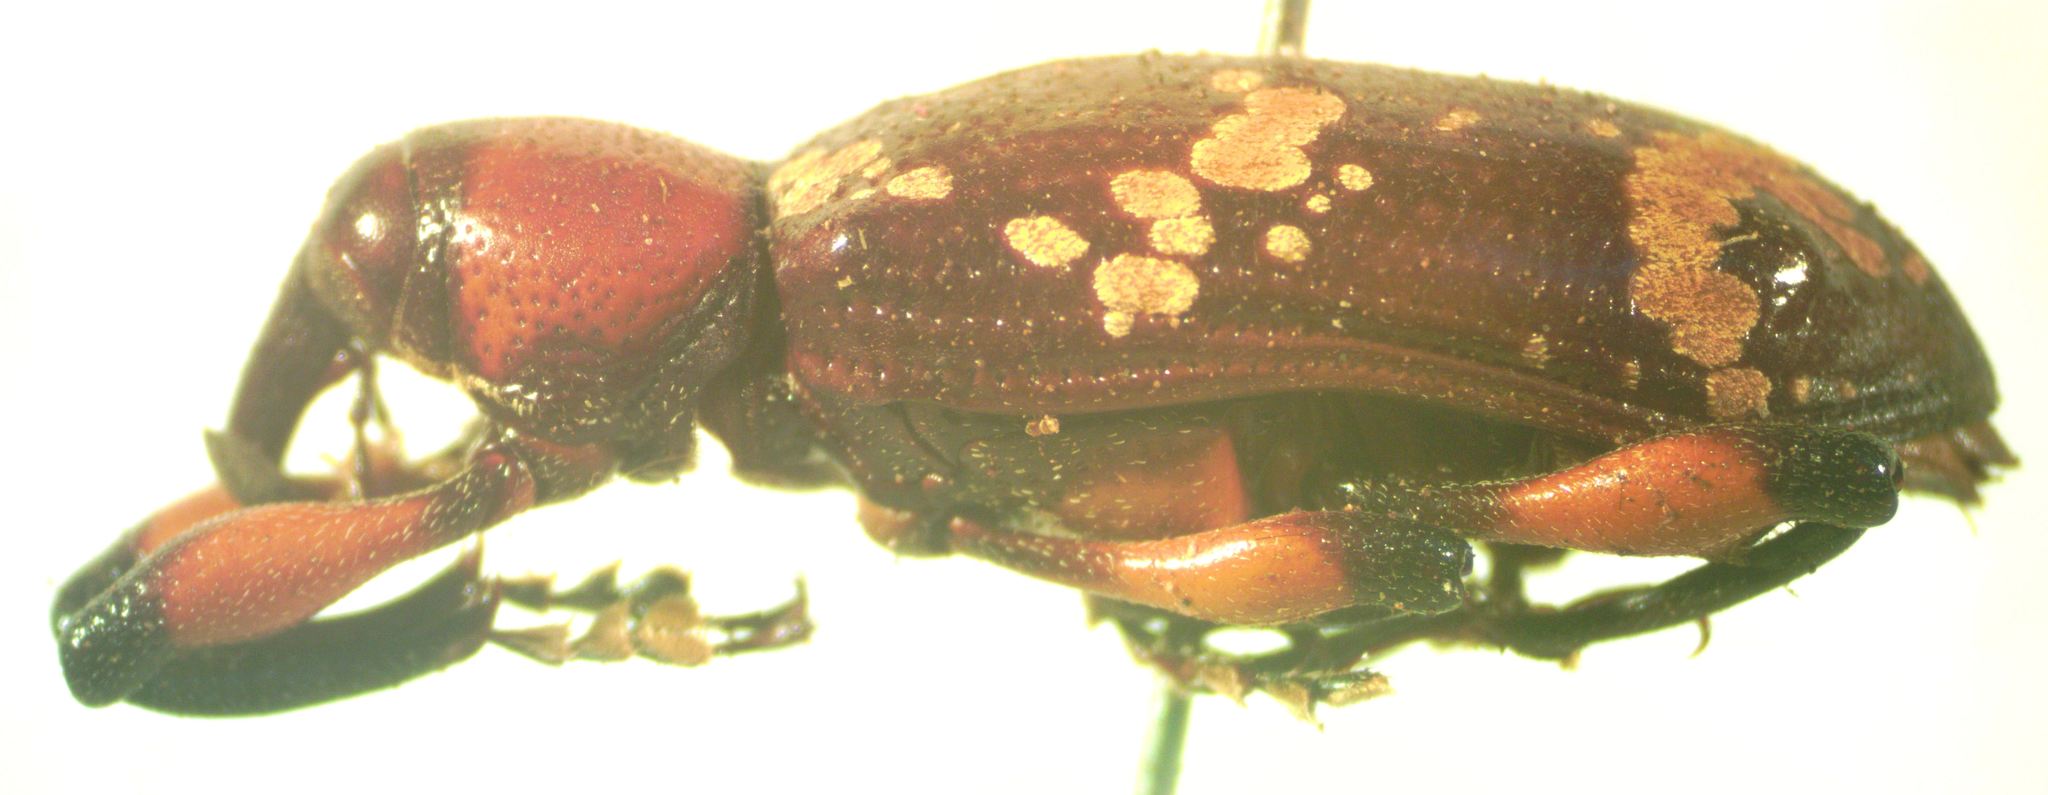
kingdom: Animalia
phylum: Arthropoda
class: Insecta
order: Coleoptera
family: Curculionidae
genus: Heilipus
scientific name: Heilipus
